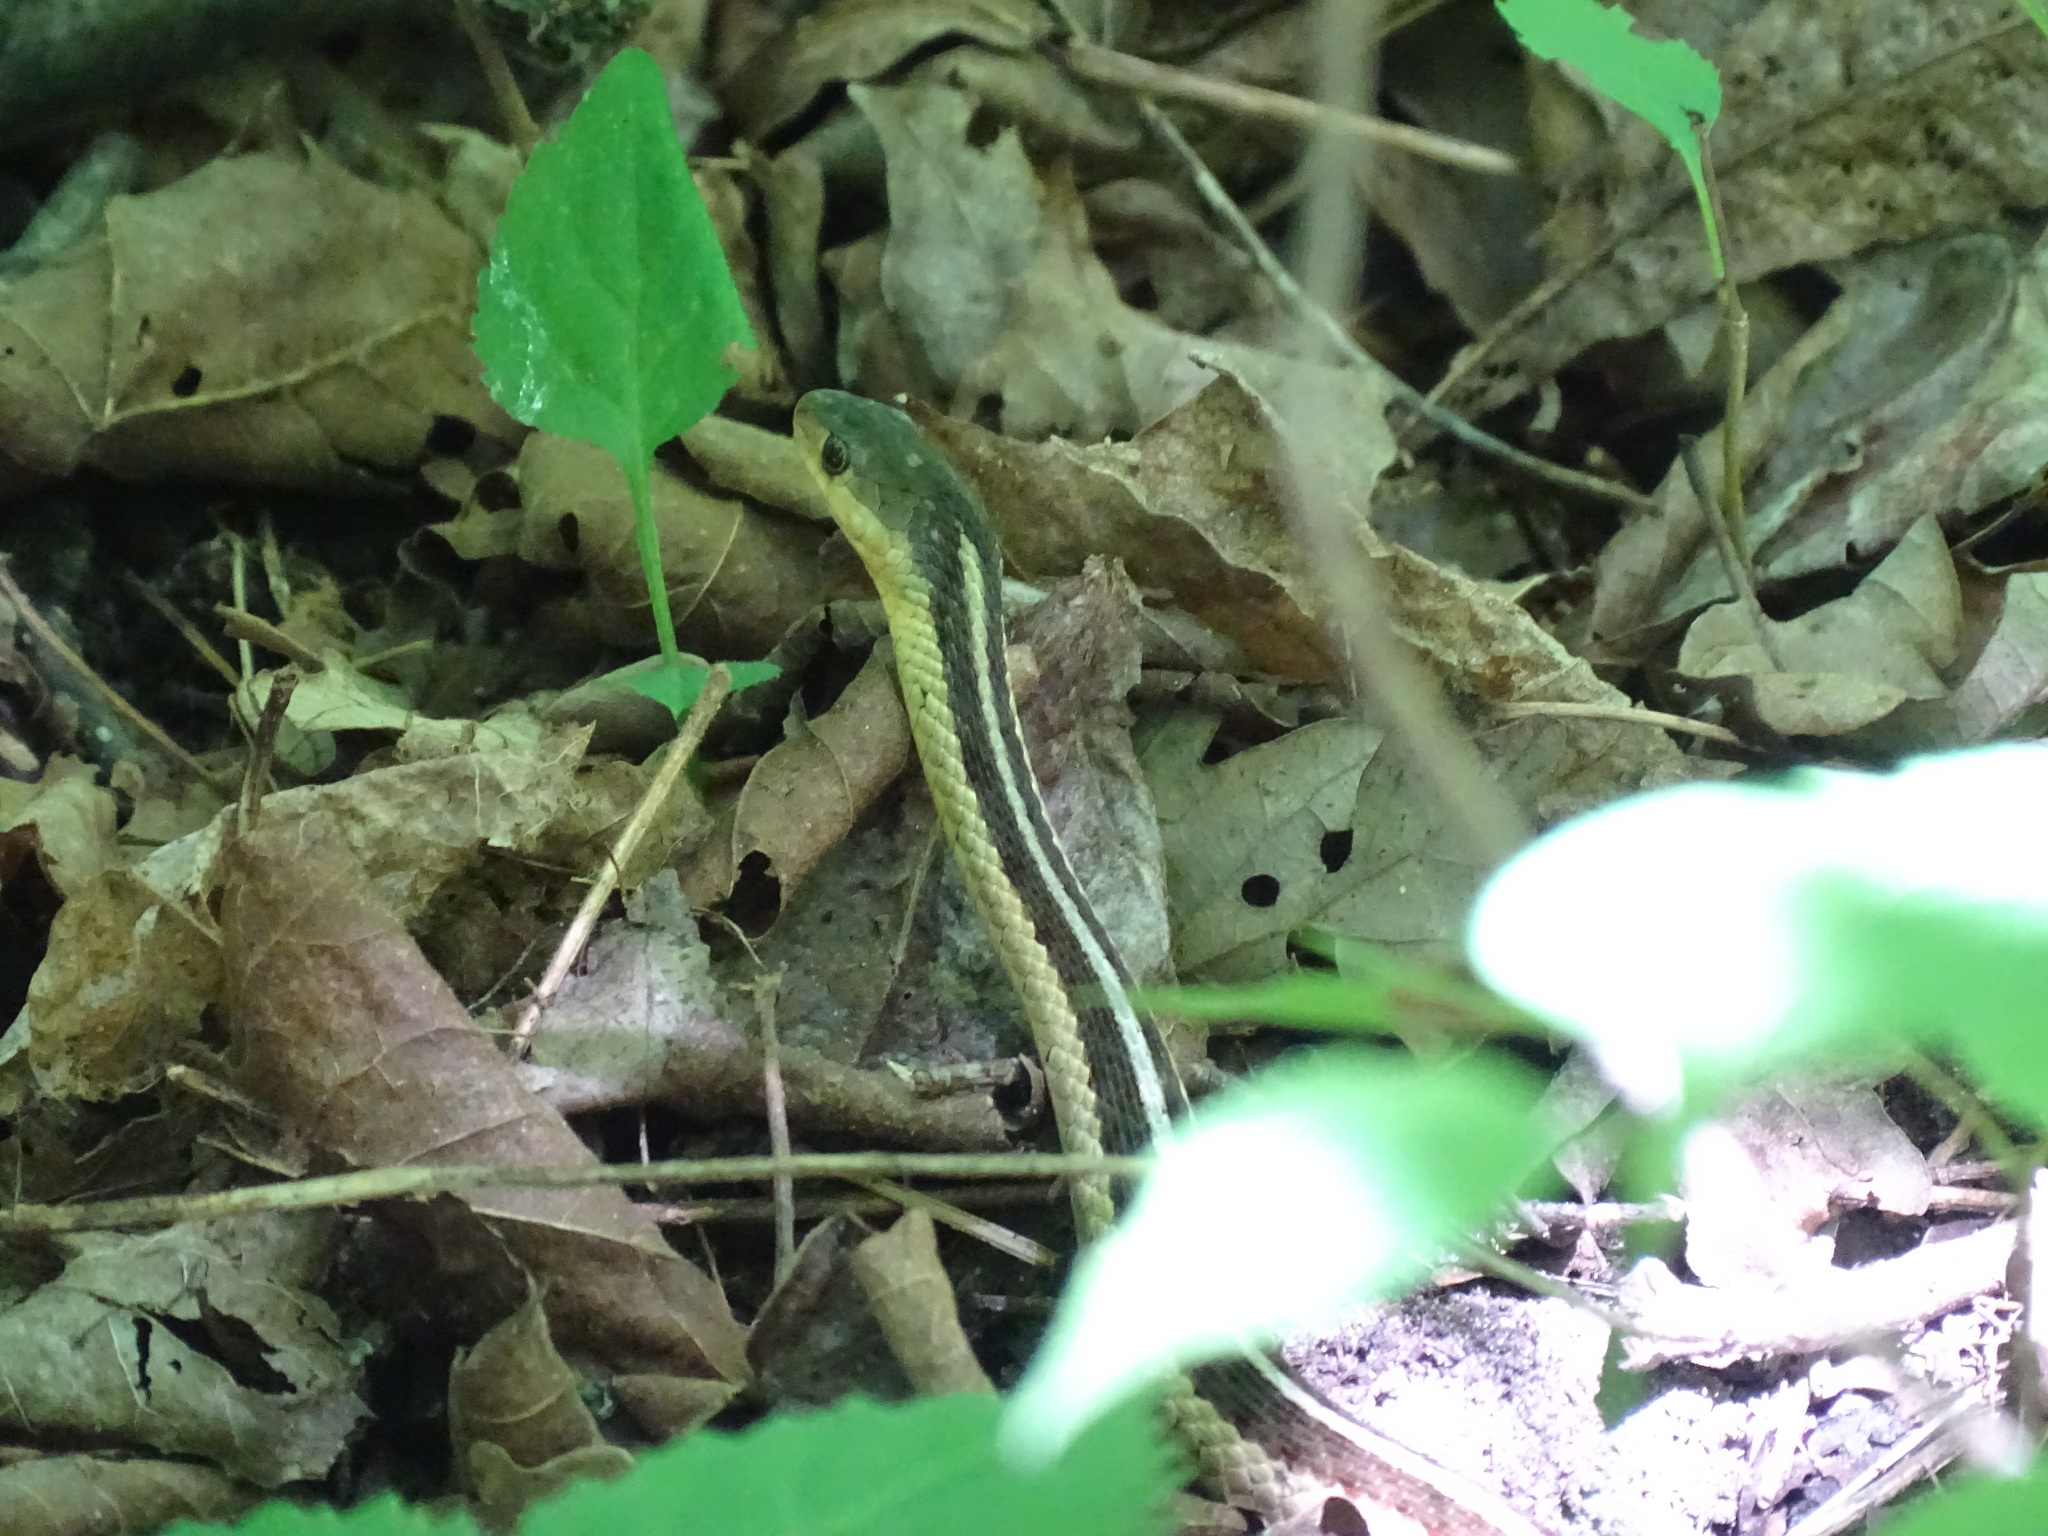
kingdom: Animalia
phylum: Chordata
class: Squamata
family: Colubridae
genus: Thamnophis
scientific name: Thamnophis sirtalis
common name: Common garter snake
